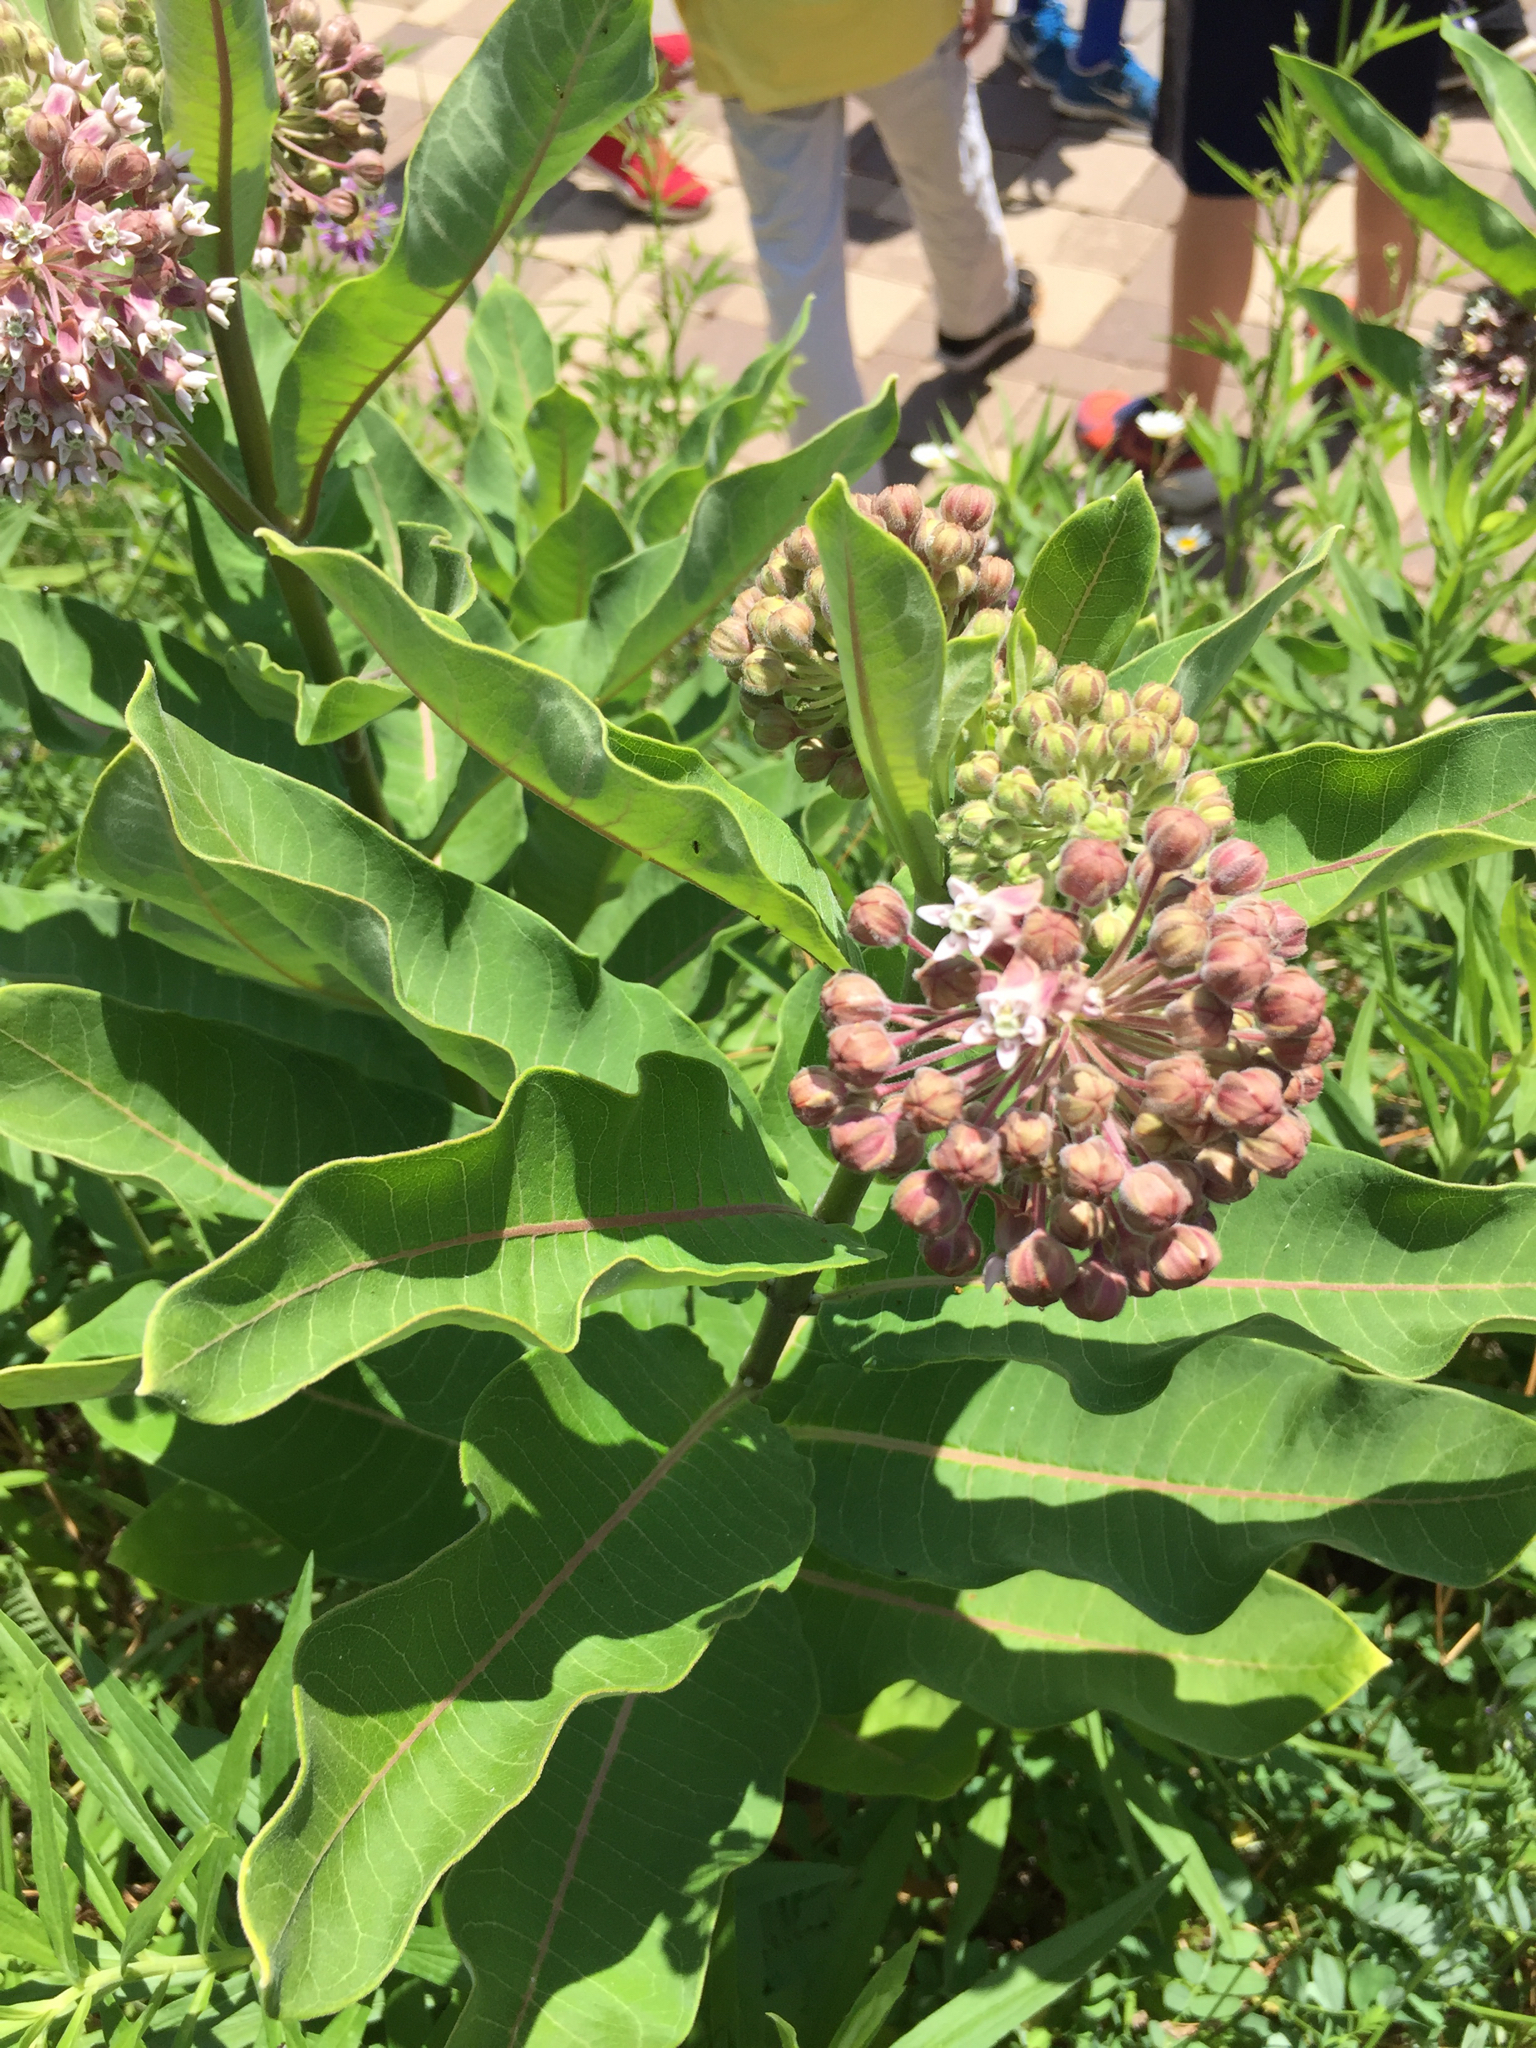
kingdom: Plantae
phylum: Tracheophyta
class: Magnoliopsida
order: Gentianales
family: Apocynaceae
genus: Asclepias
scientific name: Asclepias syriaca
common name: Common milkweed
